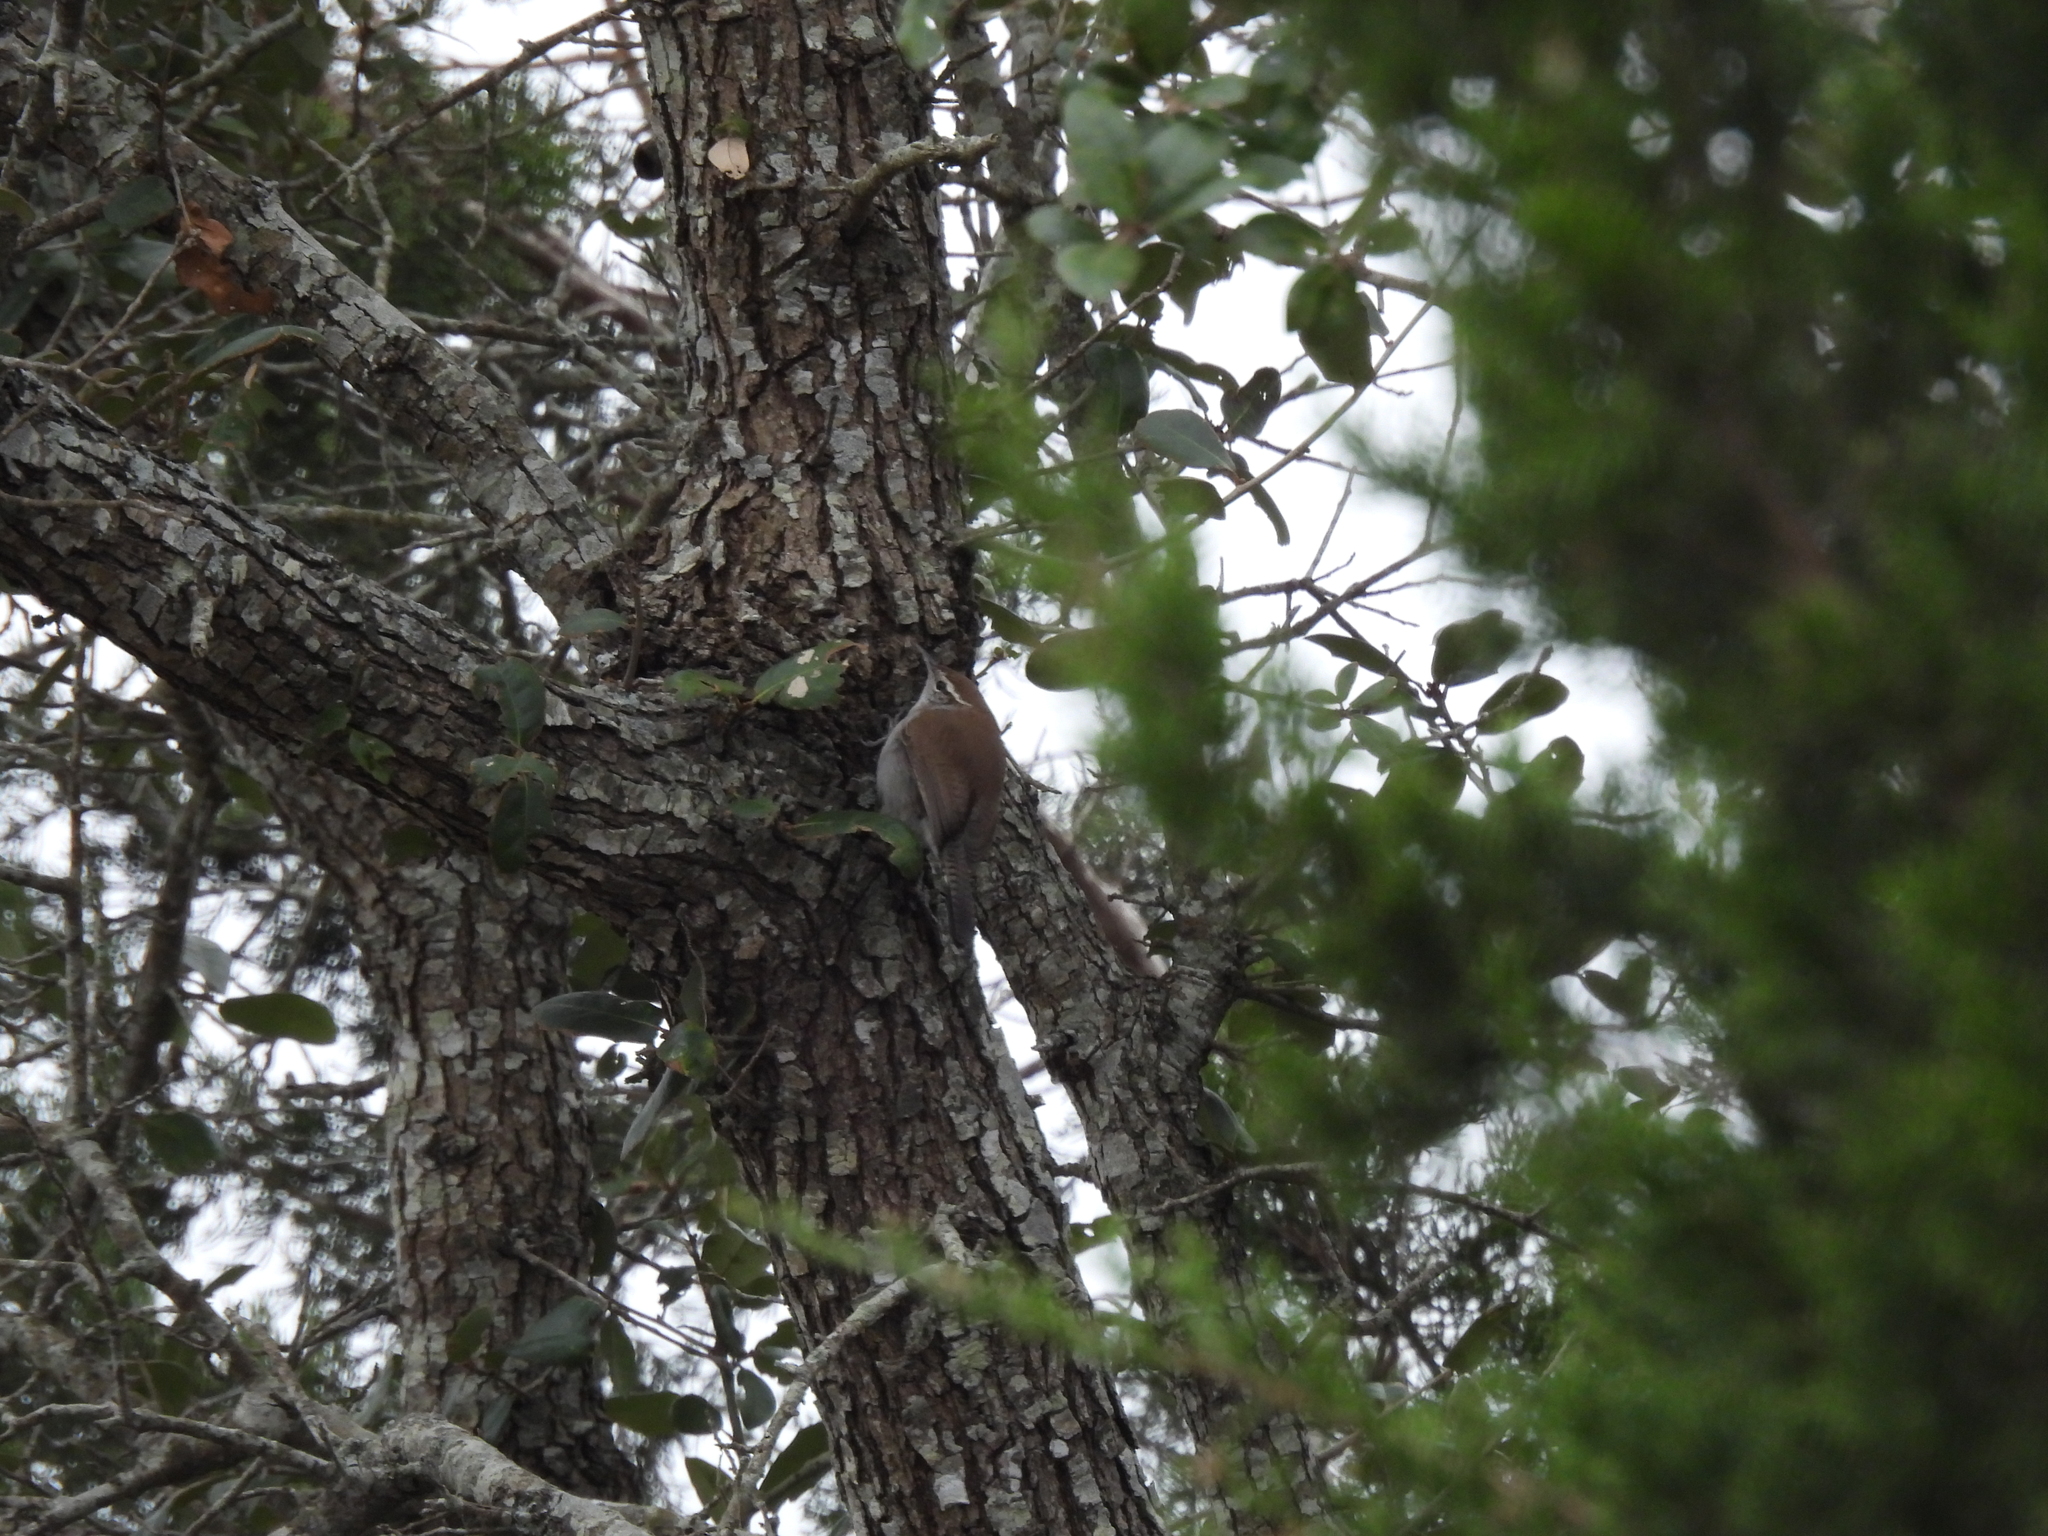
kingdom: Animalia
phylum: Chordata
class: Aves
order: Passeriformes
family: Troglodytidae
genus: Thryomanes
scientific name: Thryomanes bewickii
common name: Bewick's wren
